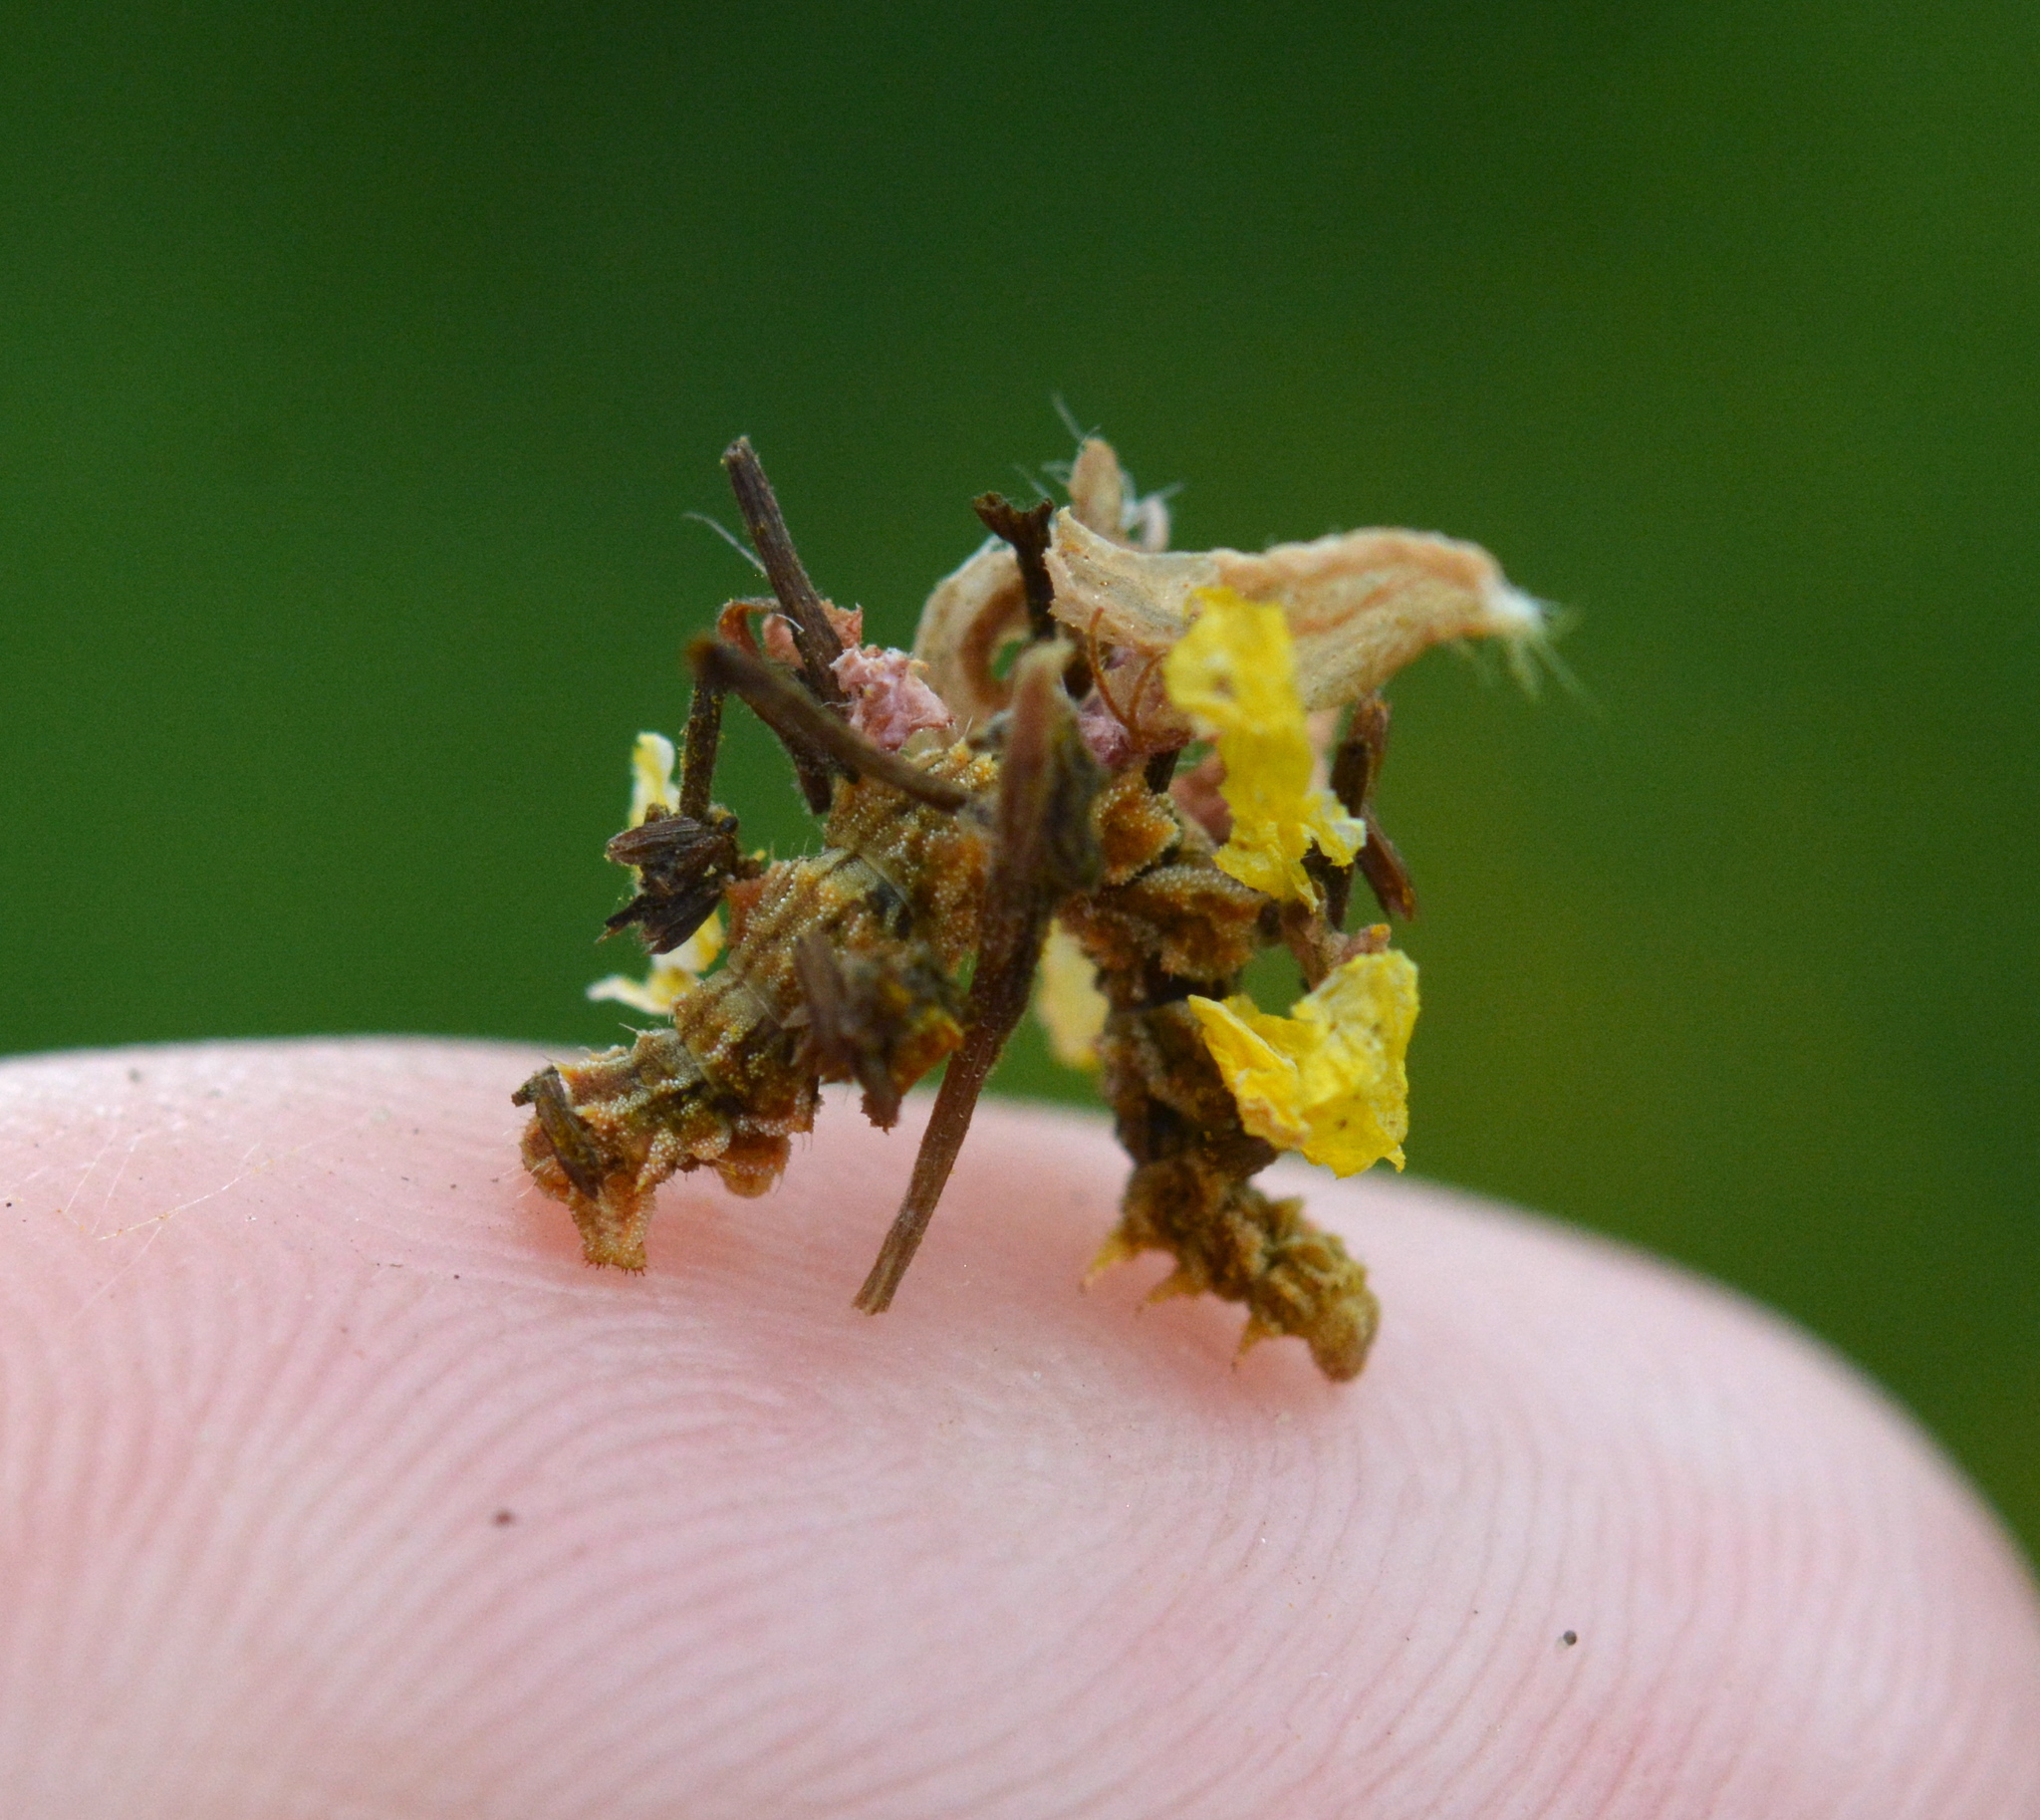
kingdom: Animalia
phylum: Arthropoda
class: Insecta
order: Lepidoptera
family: Geometridae
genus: Synchlora
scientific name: Synchlora aerata
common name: Wavy-lined emerald
